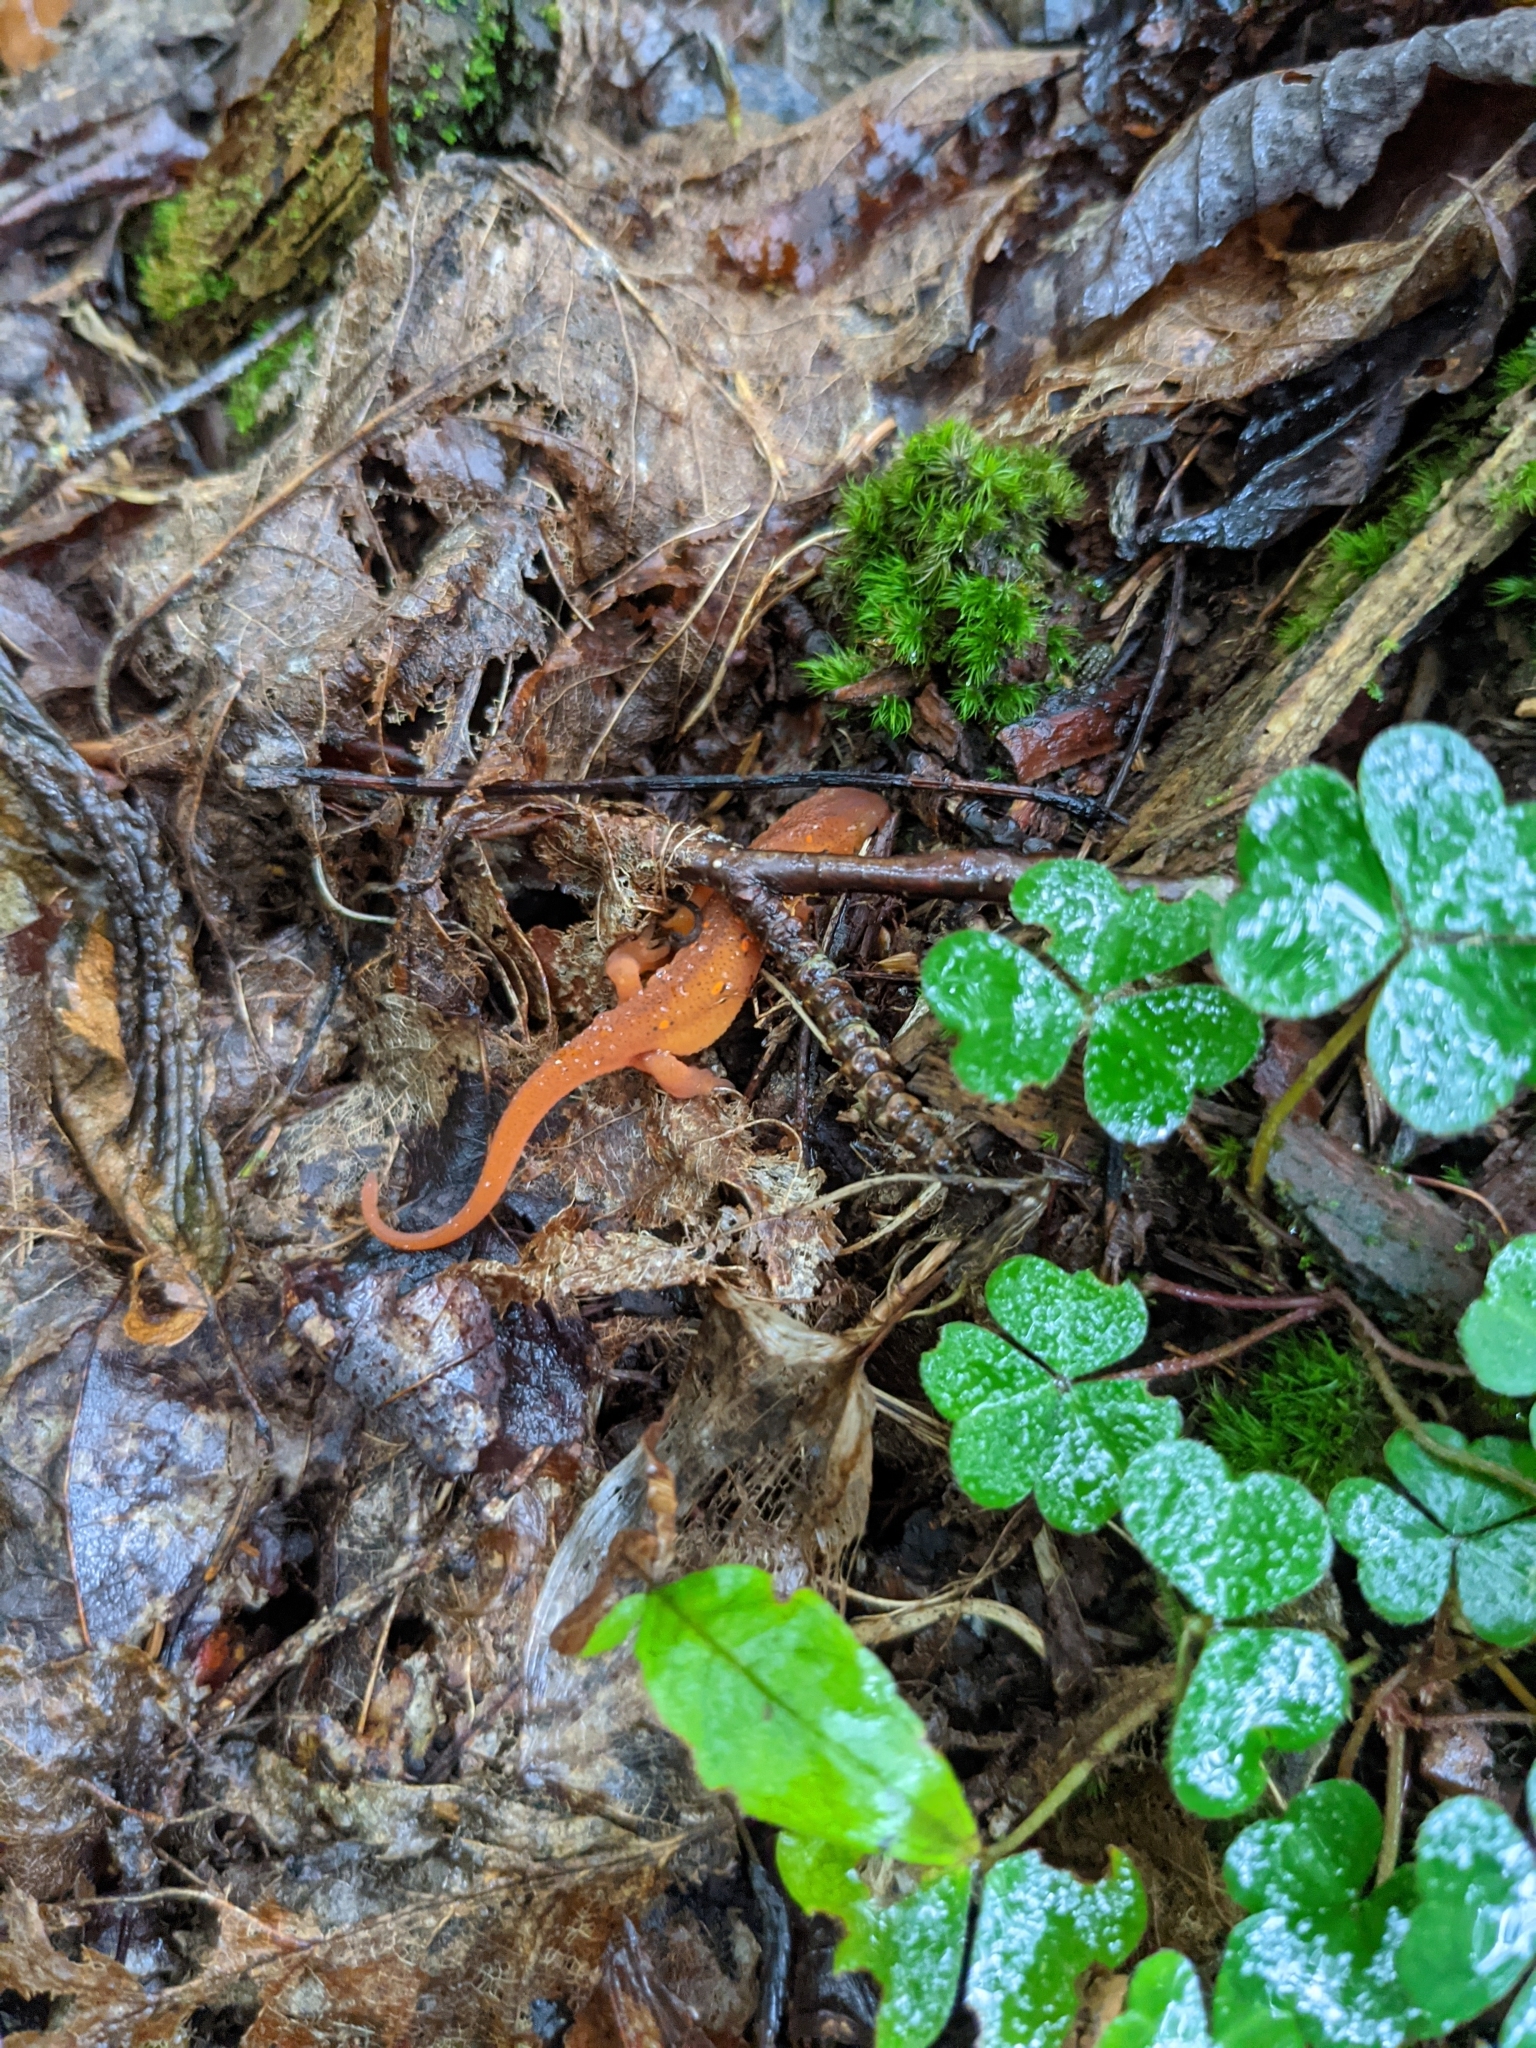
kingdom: Animalia
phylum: Chordata
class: Amphibia
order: Caudata
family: Salamandridae
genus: Notophthalmus
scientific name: Notophthalmus viridescens
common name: Eastern newt
